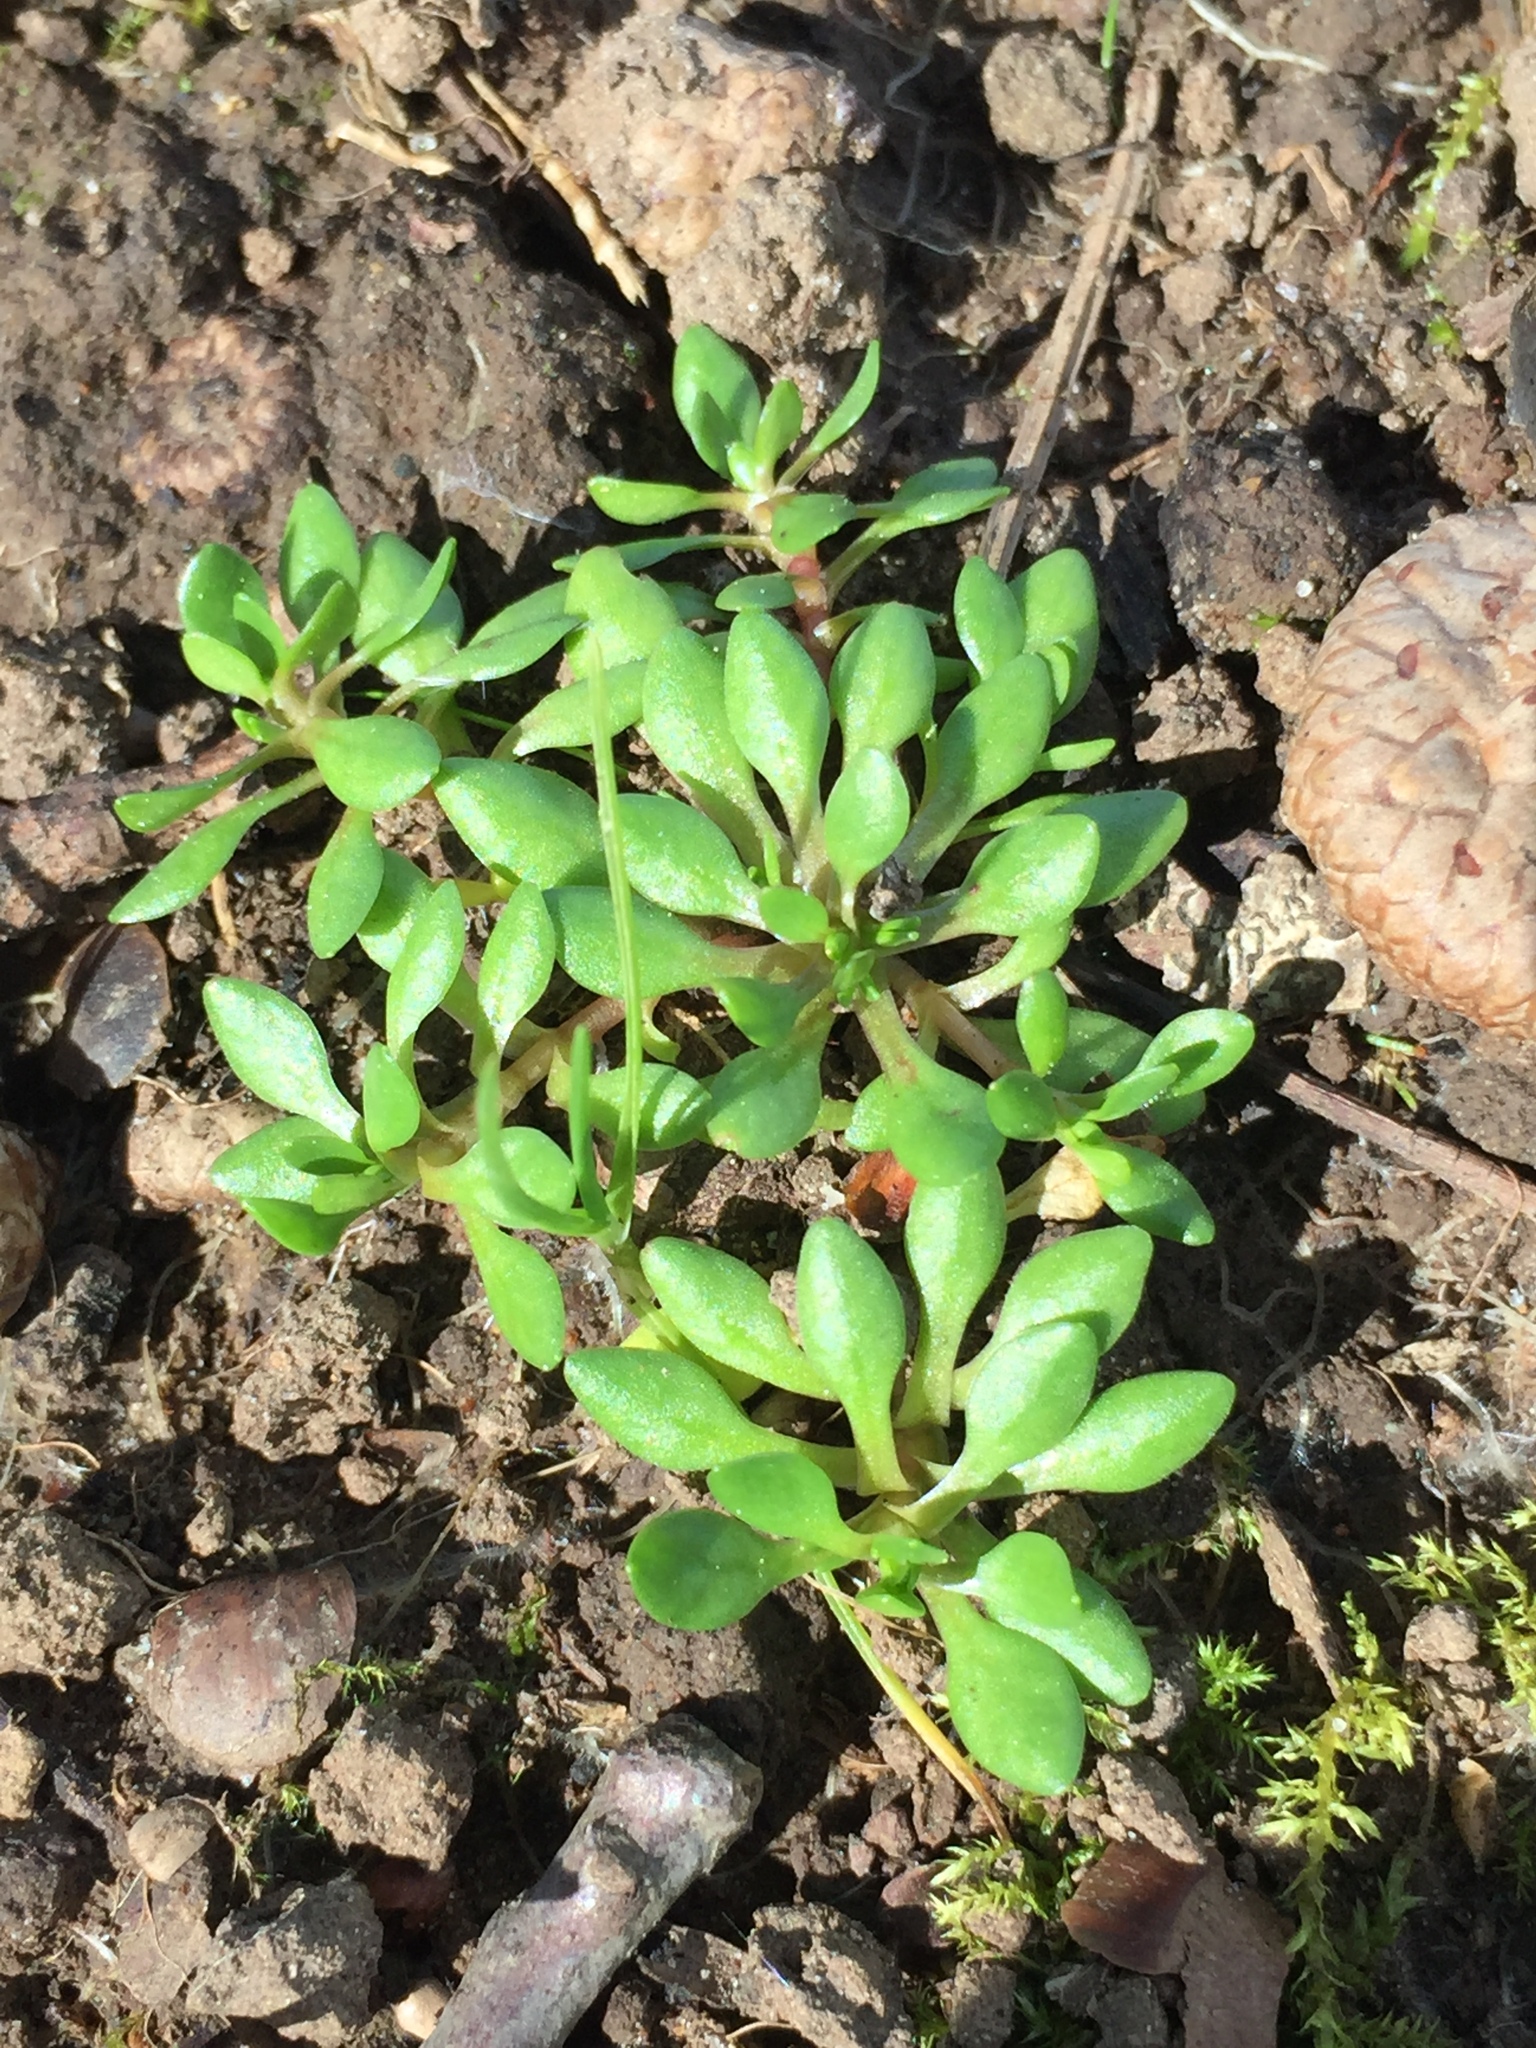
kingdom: Plantae
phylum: Tracheophyta
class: Magnoliopsida
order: Caryophyllales
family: Montiaceae
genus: Montia
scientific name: Montia
